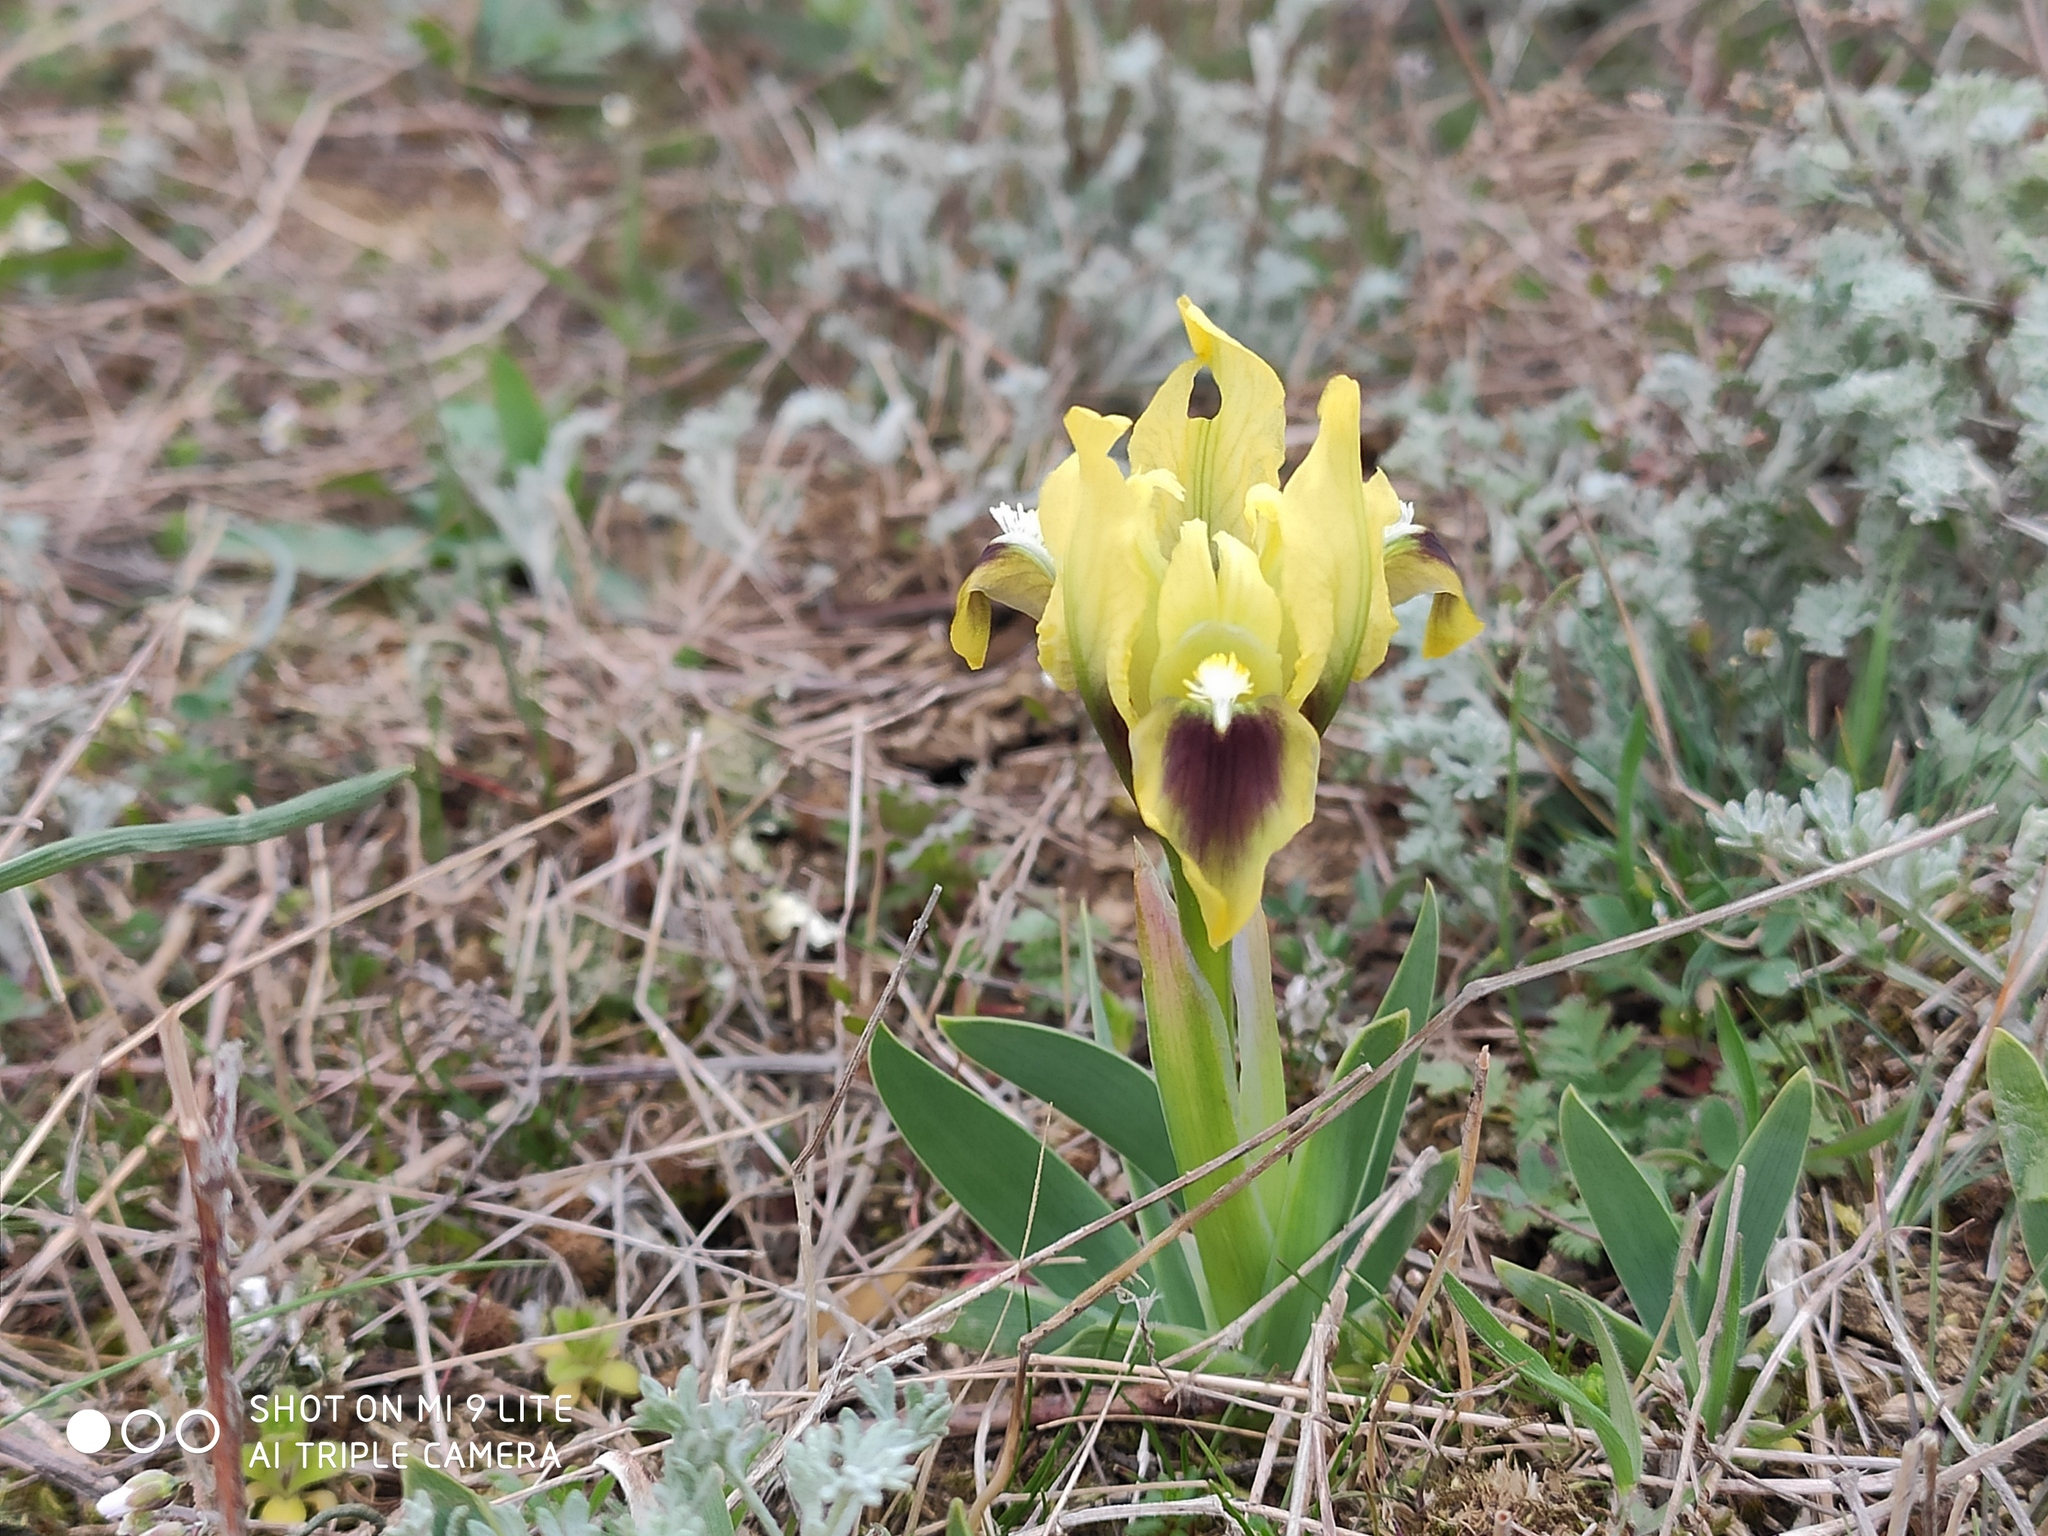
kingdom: Plantae
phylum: Tracheophyta
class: Liliopsida
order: Asparagales
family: Iridaceae
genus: Iris
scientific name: Iris pumila
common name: Dwarf iris
